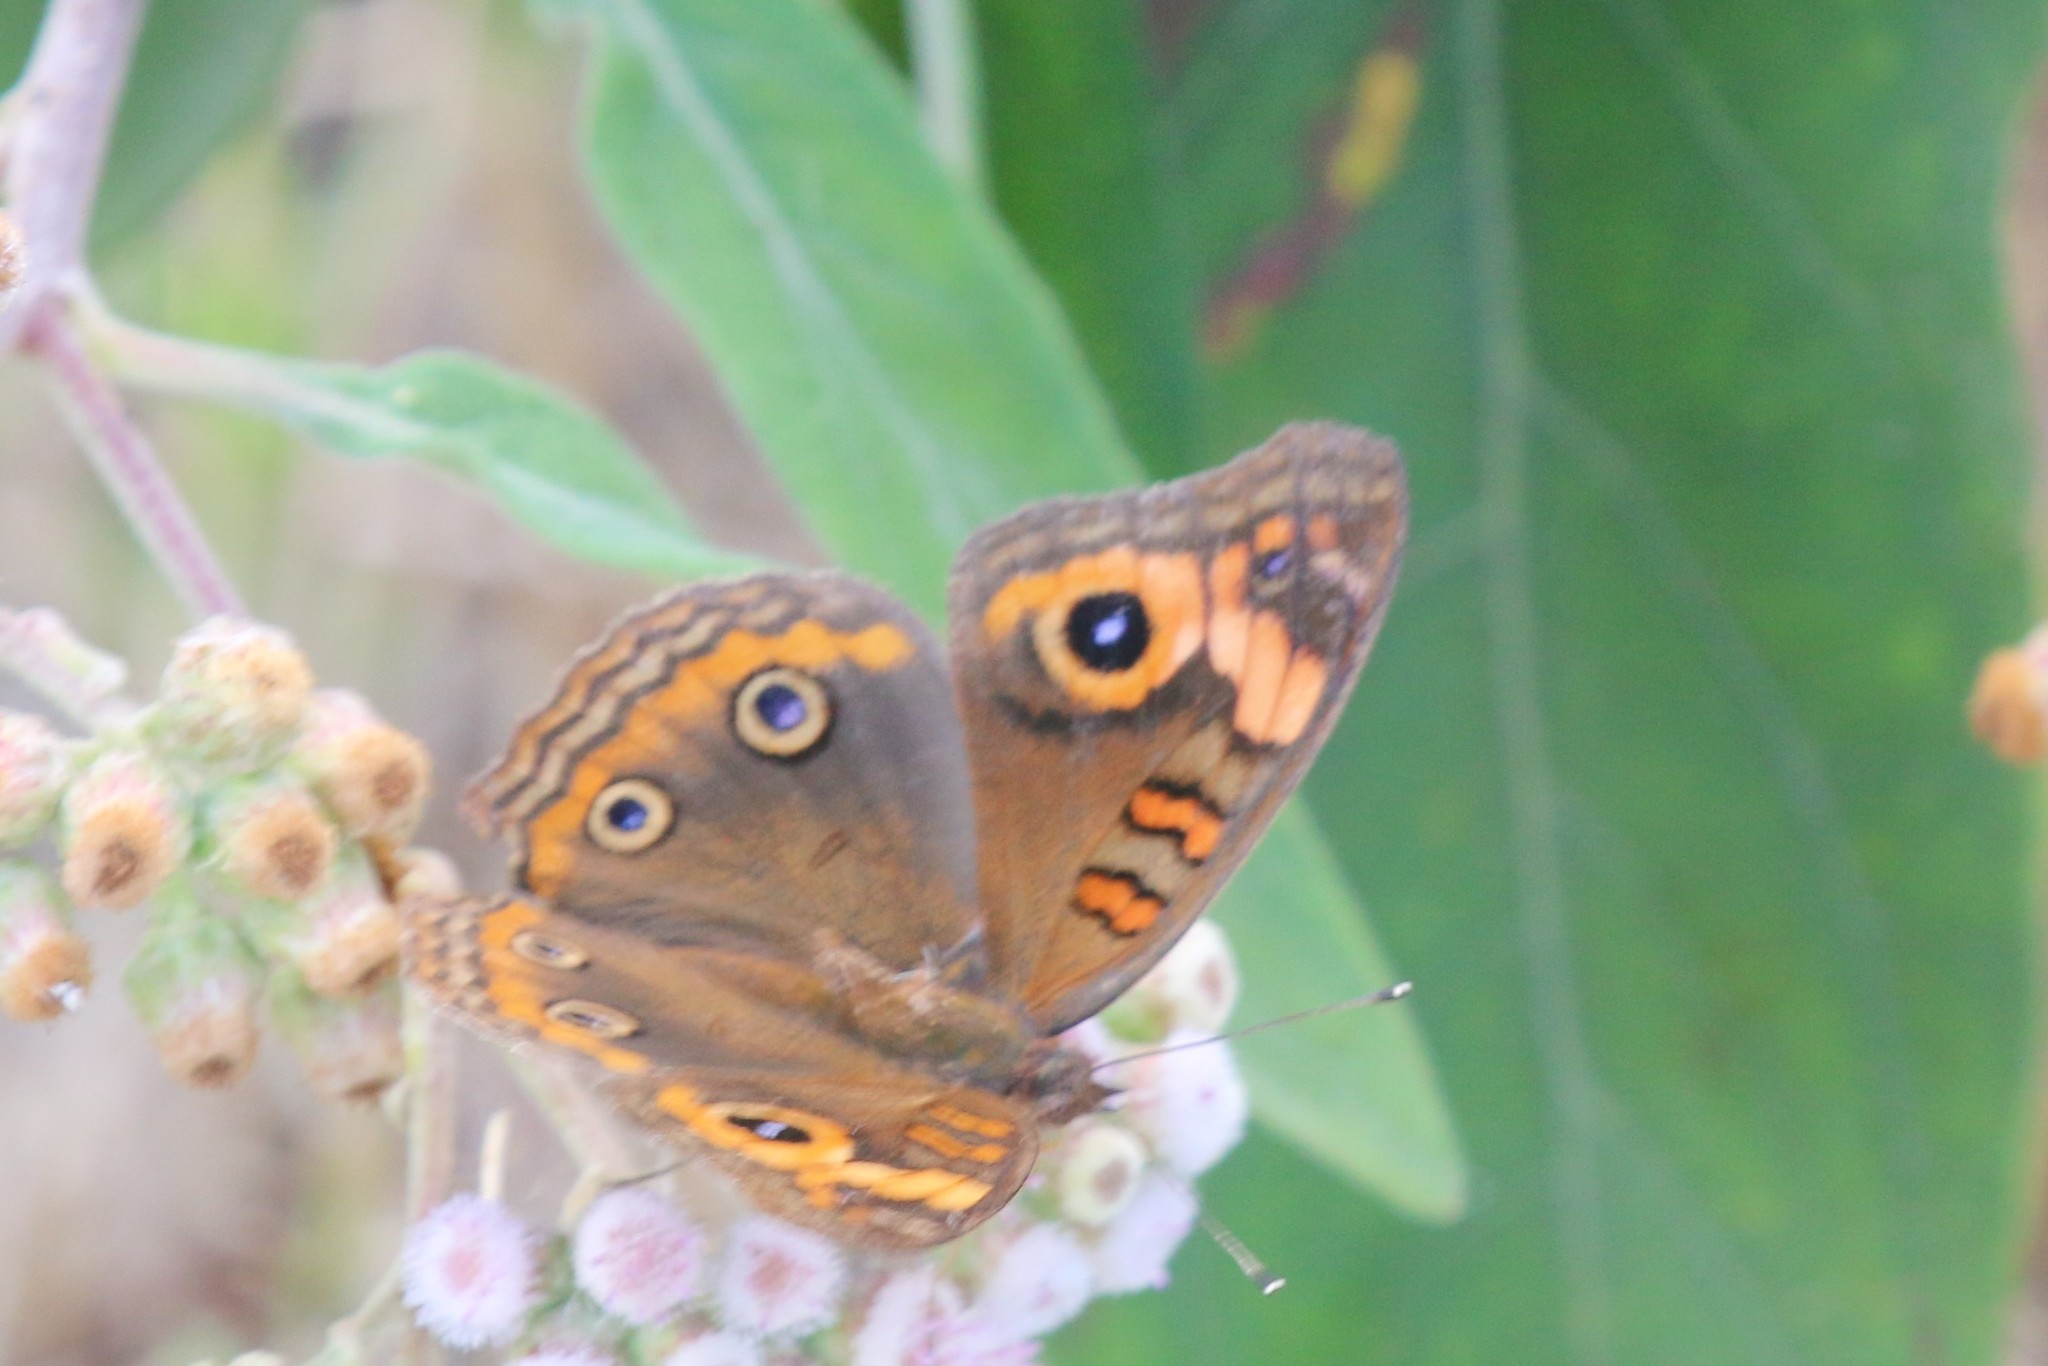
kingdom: Animalia
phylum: Arthropoda
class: Insecta
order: Lepidoptera
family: Nymphalidae
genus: Junonia
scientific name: Junonia neildi
